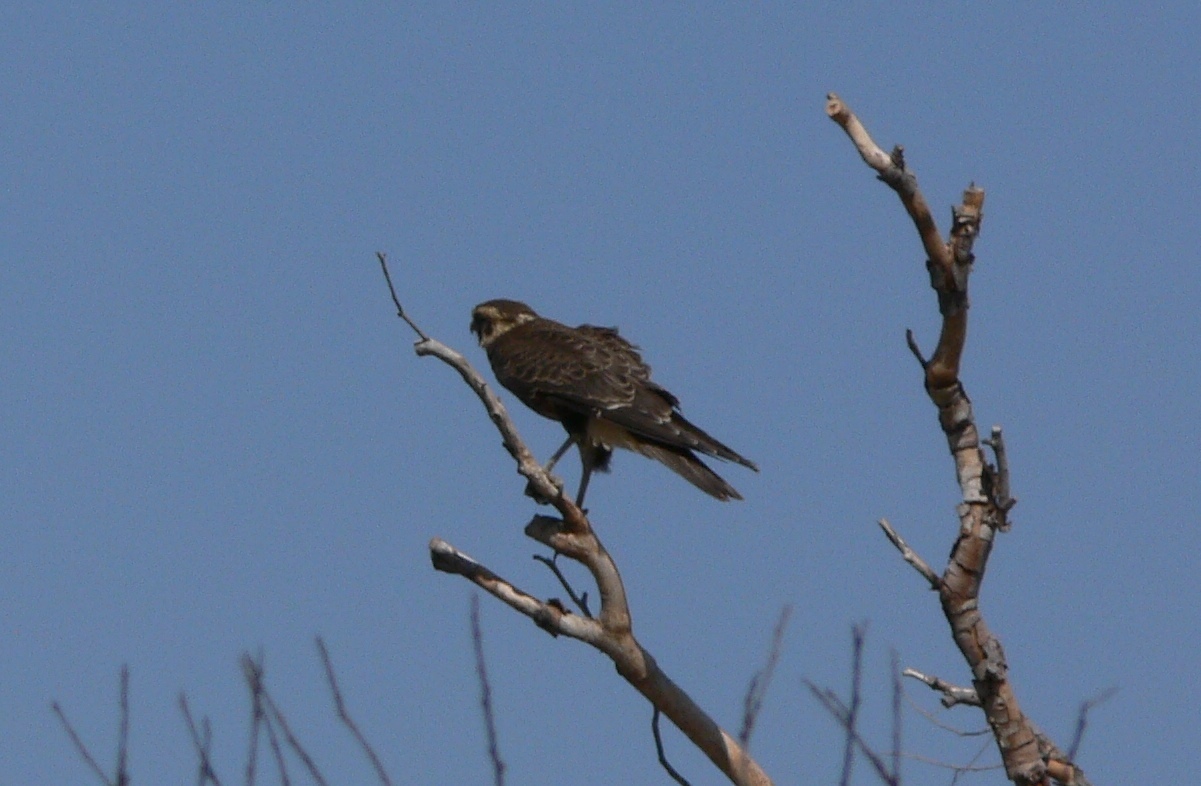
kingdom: Animalia
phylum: Chordata
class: Aves
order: Falconiformes
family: Falconidae
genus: Falco
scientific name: Falco berigora
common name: Brown falcon
